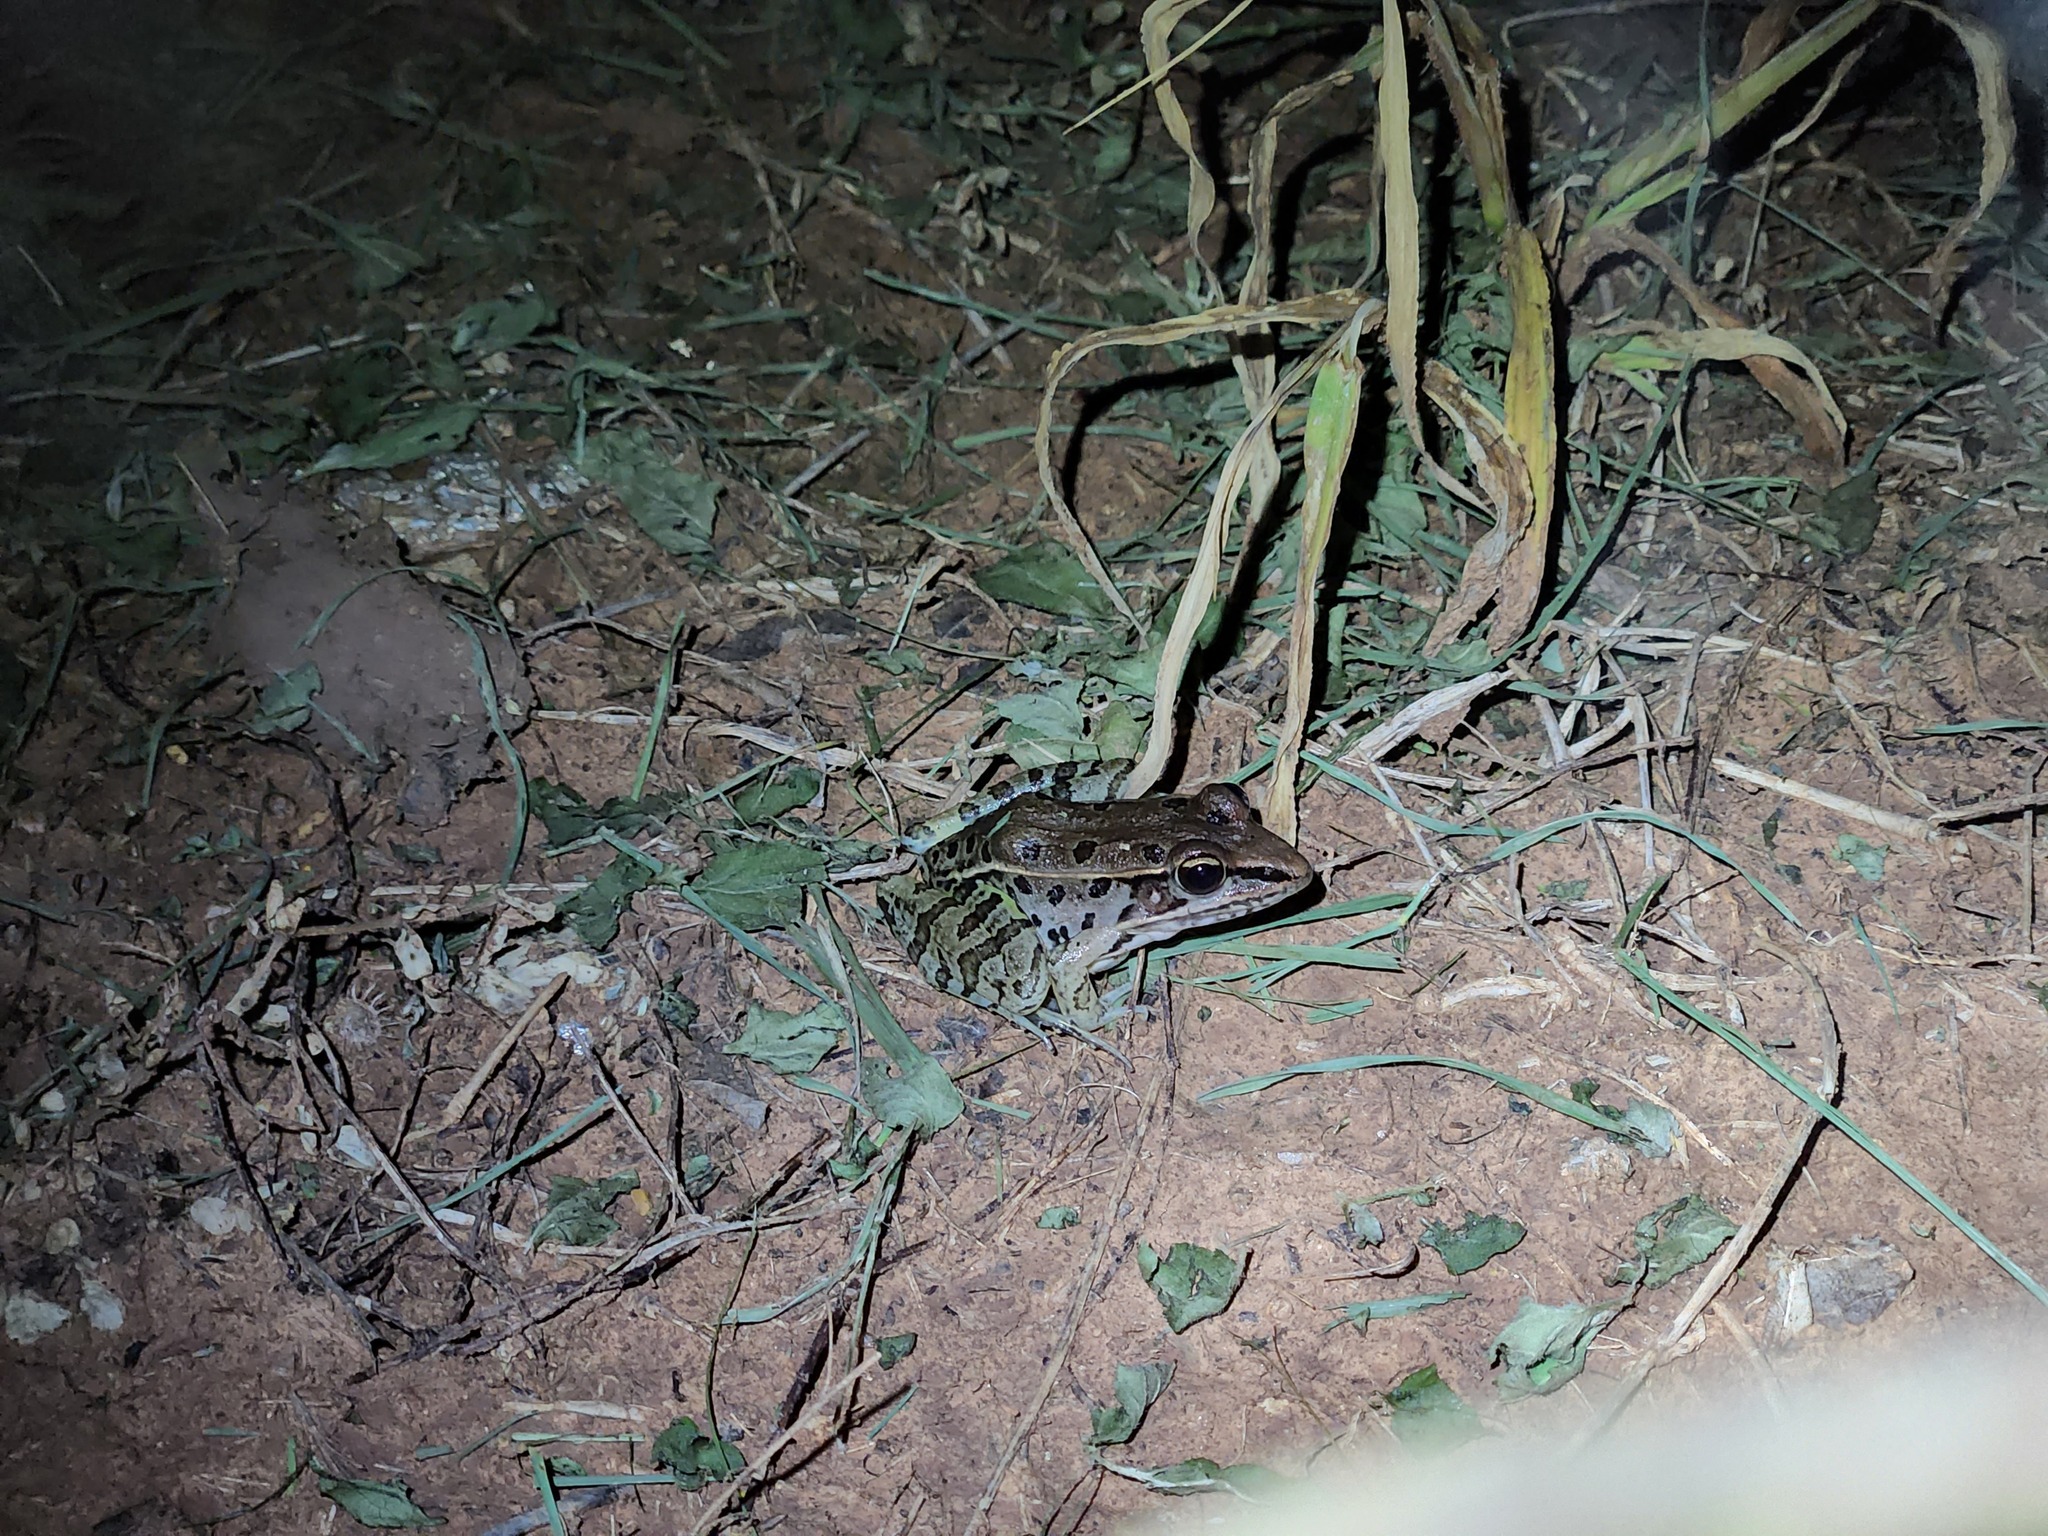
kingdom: Animalia
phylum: Chordata
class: Amphibia
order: Anura
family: Ranidae
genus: Lithobates
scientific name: Lithobates sphenocephalus
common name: Southern leopard frog
